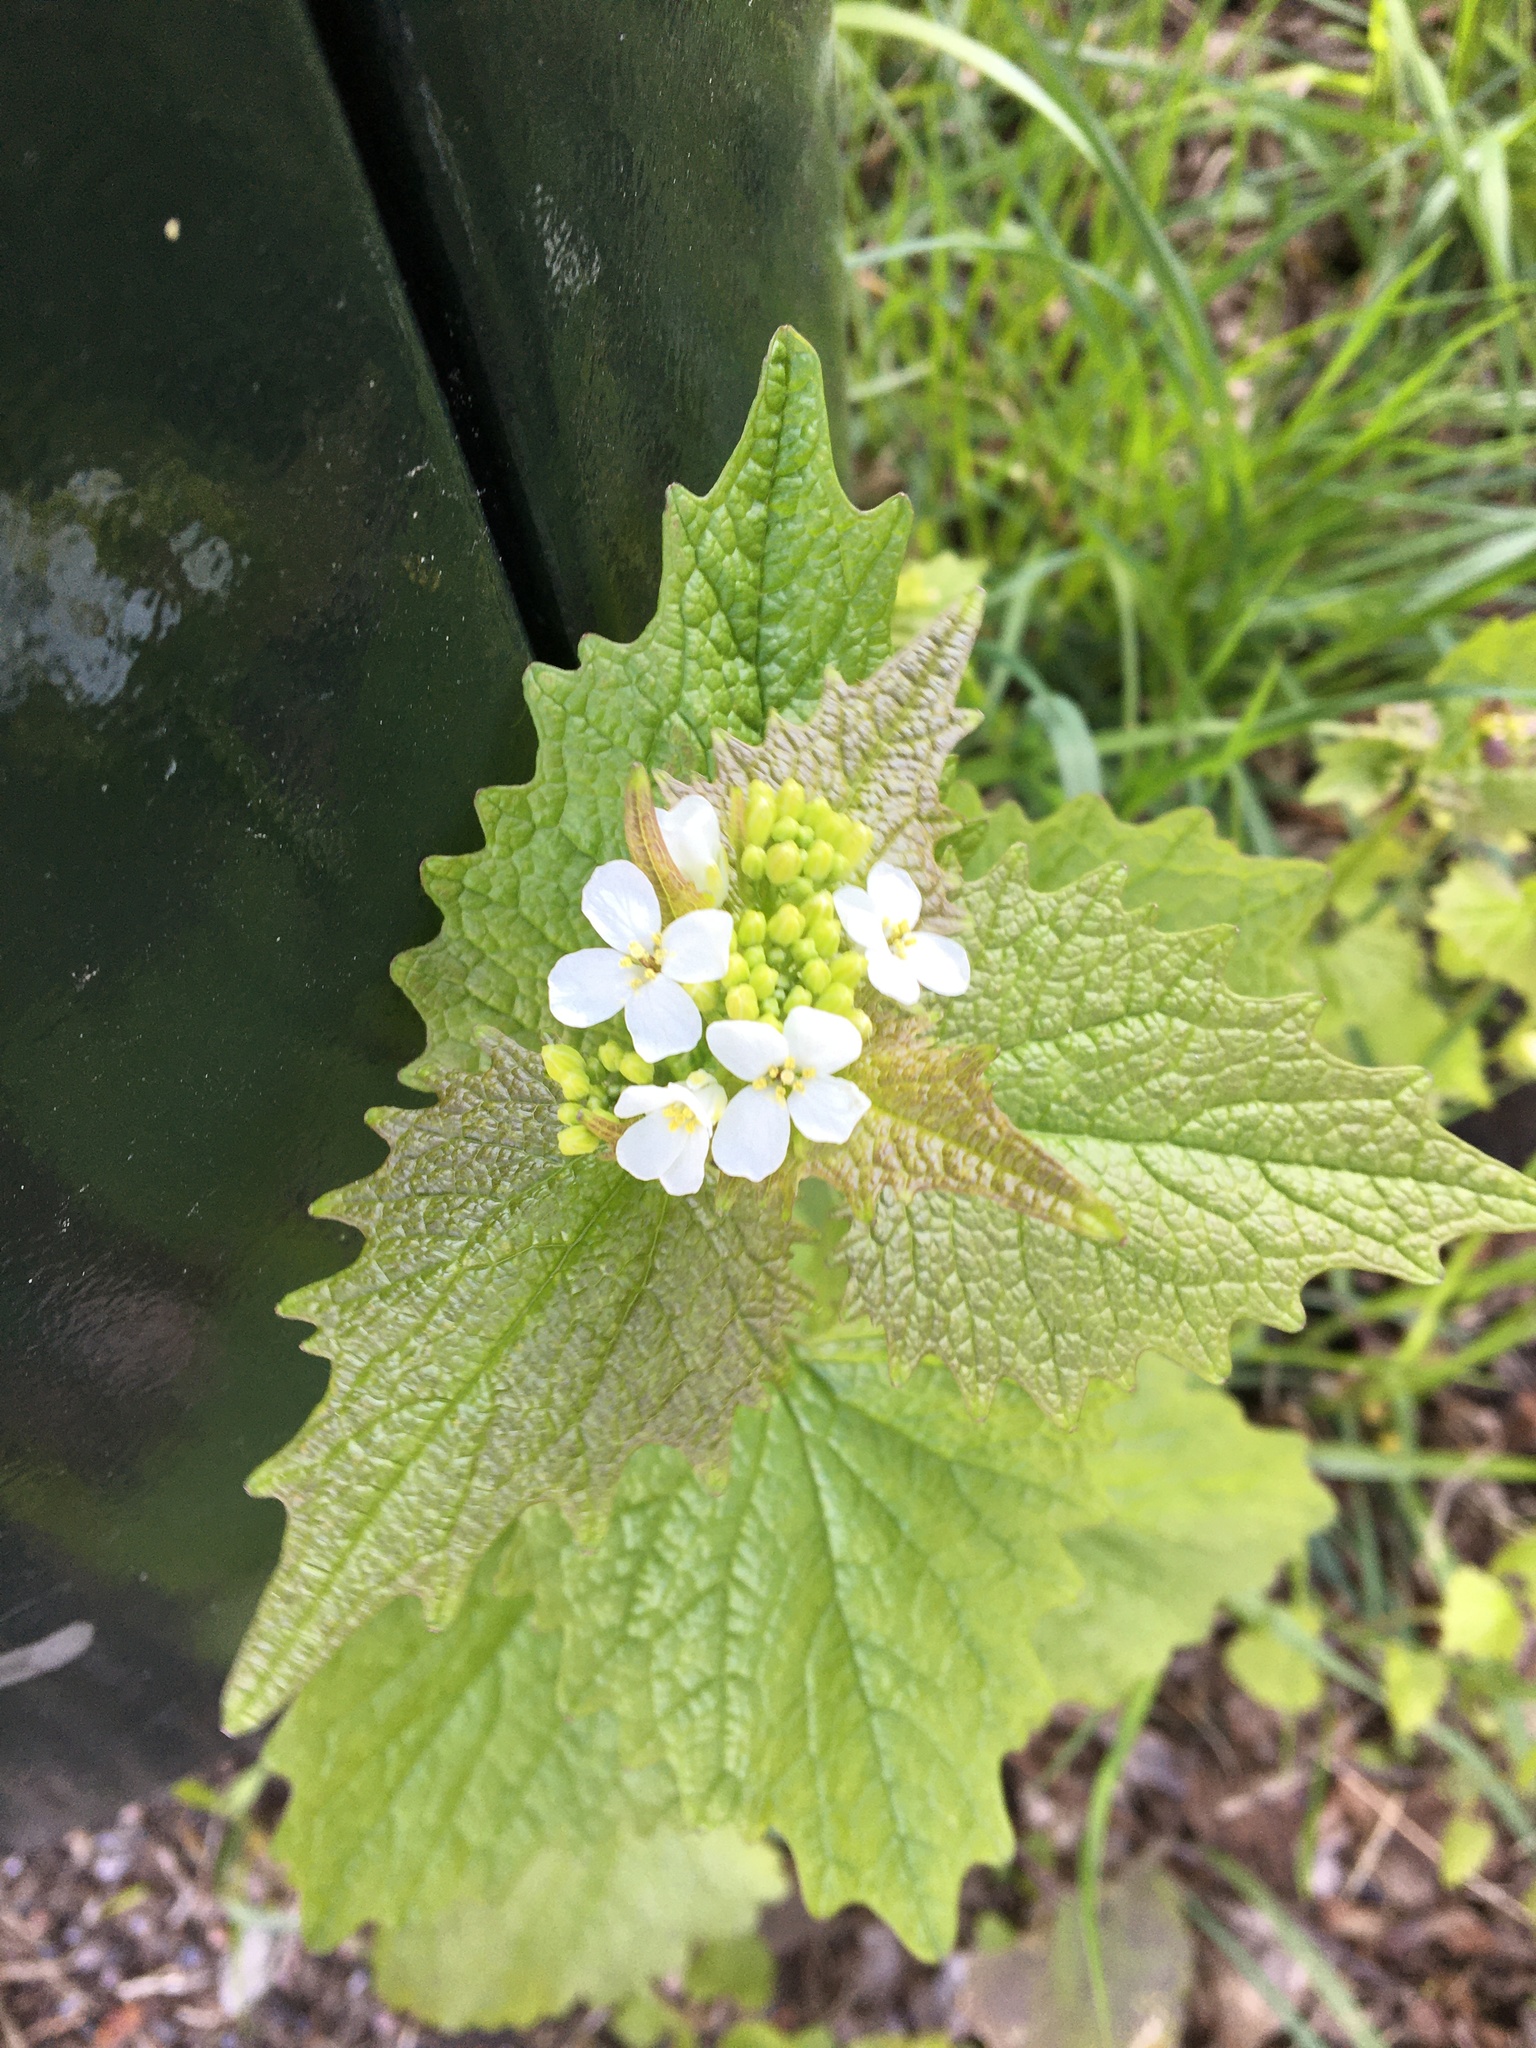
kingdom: Plantae
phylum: Tracheophyta
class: Magnoliopsida
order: Brassicales
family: Brassicaceae
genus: Alliaria
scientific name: Alliaria petiolata
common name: Garlic mustard
